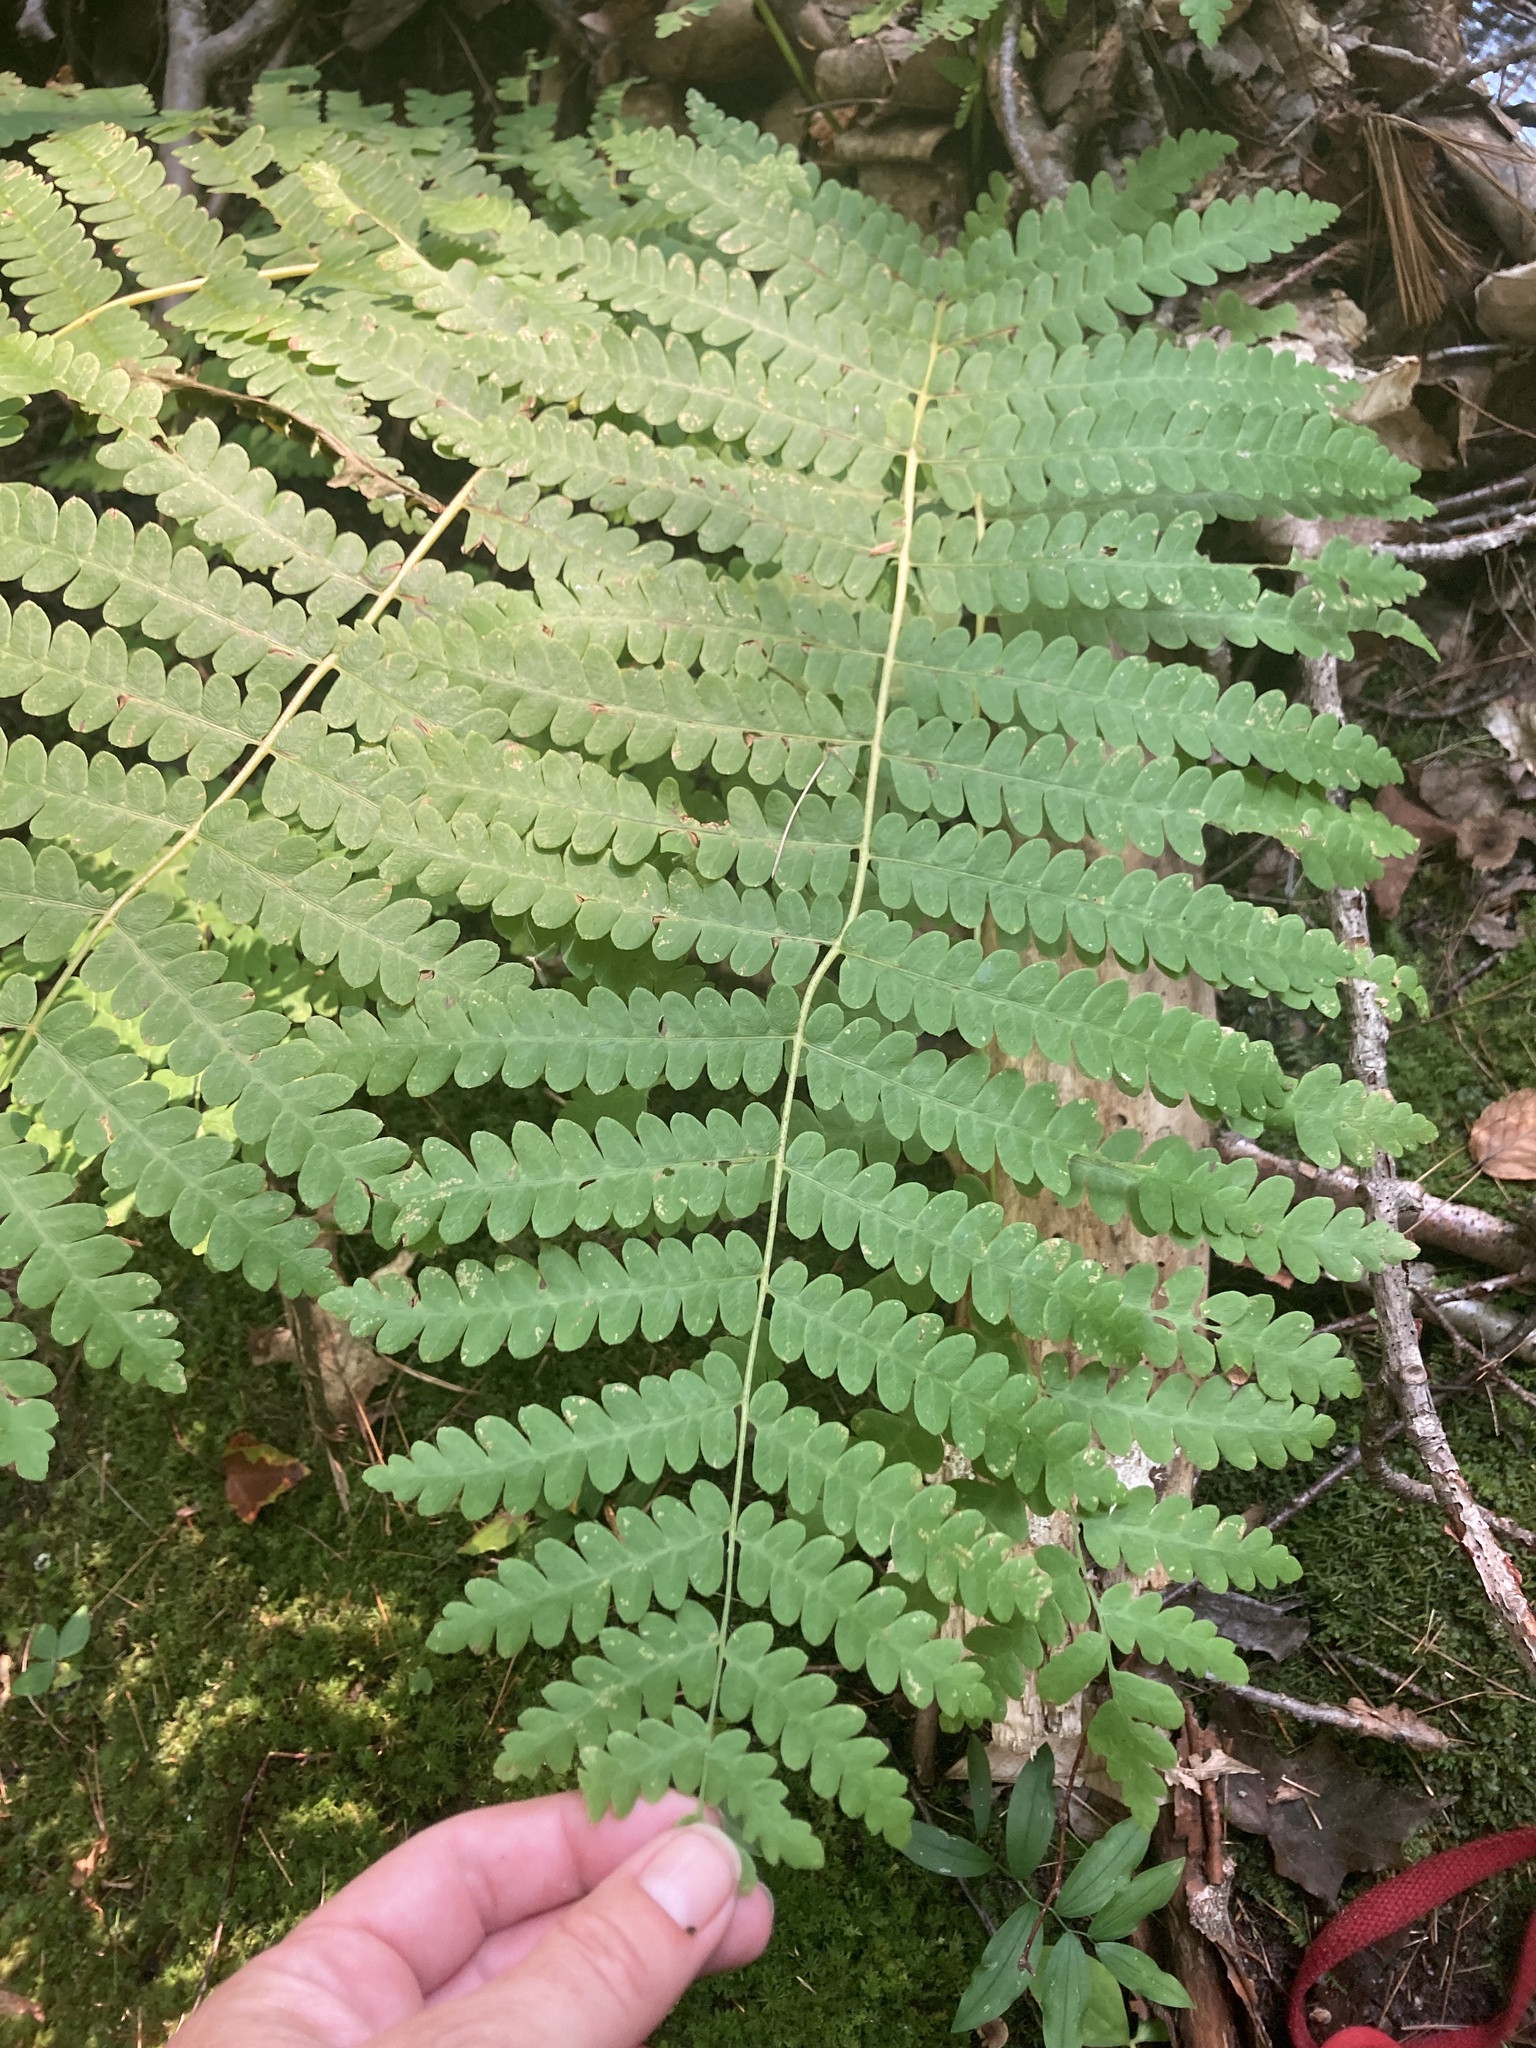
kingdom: Plantae
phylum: Tracheophyta
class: Polypodiopsida
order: Osmundales
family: Osmundaceae
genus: Claytosmunda
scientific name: Claytosmunda claytoniana
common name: Clayton's fern
